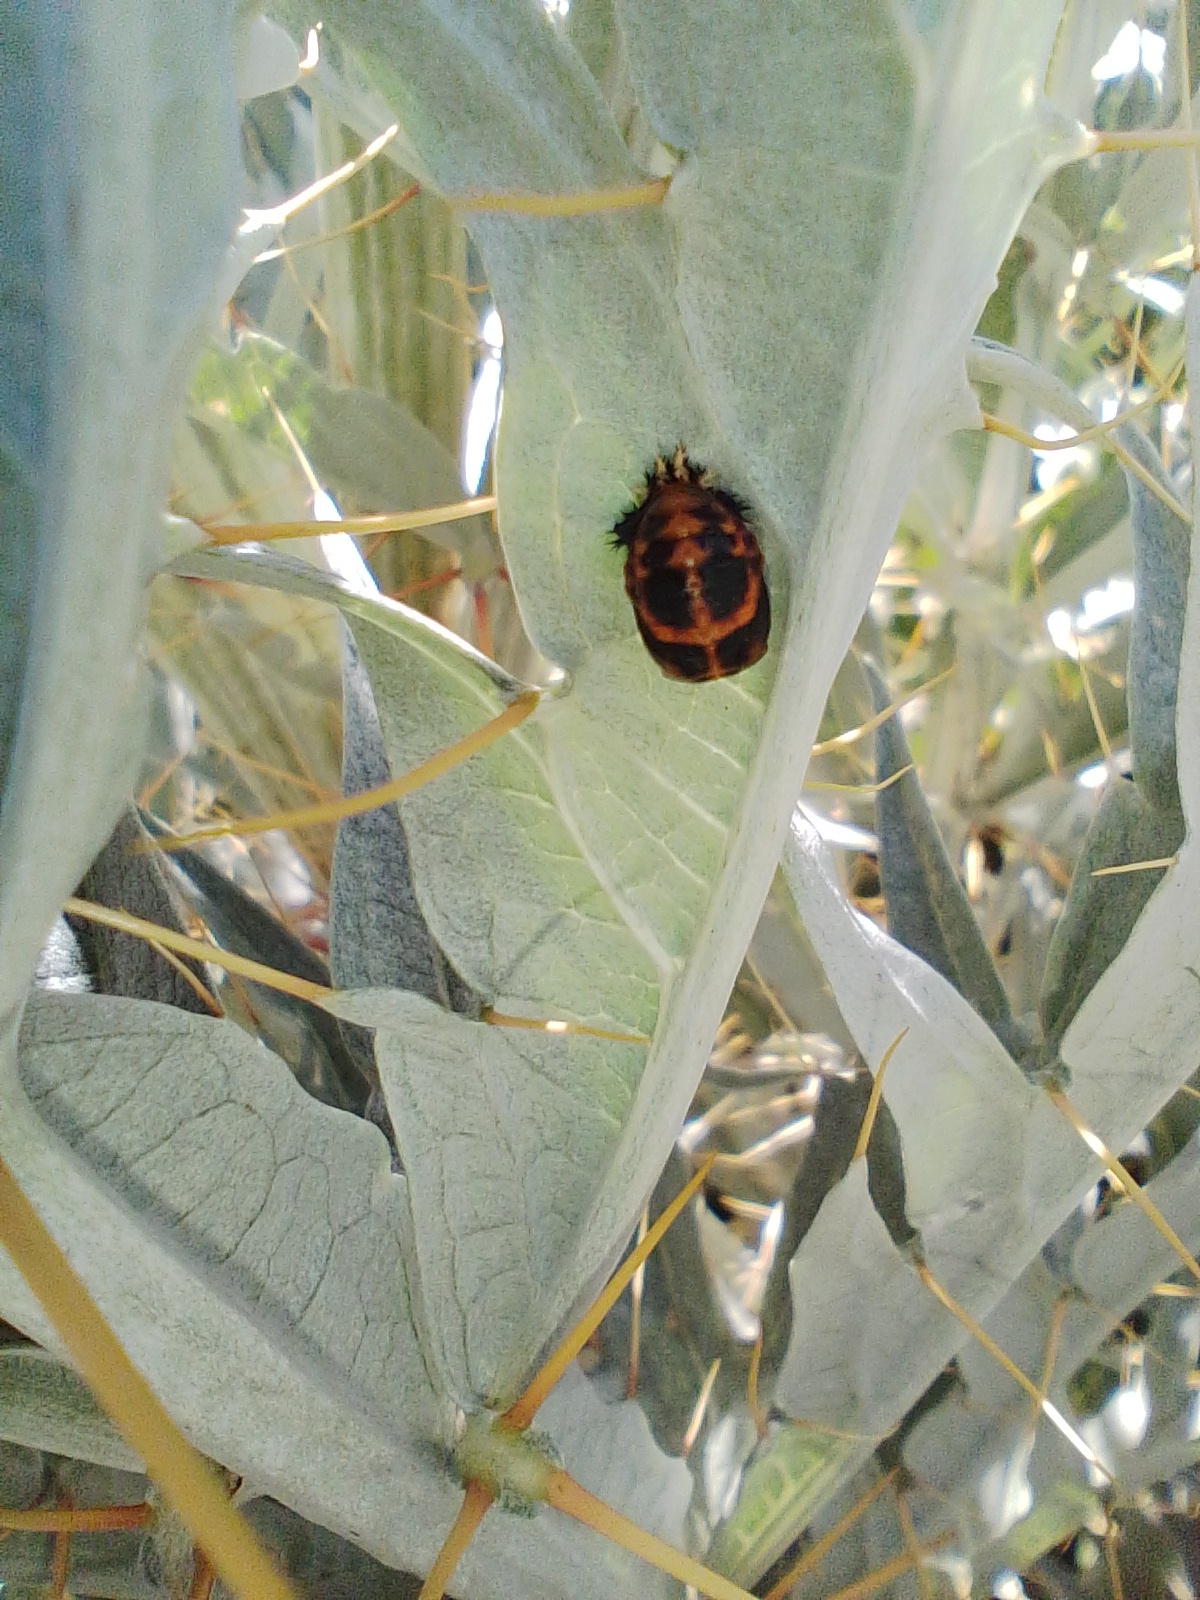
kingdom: Animalia
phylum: Arthropoda
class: Insecta
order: Coleoptera
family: Coccinellidae
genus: Harmonia
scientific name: Harmonia axyridis
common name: Harlequin ladybird
